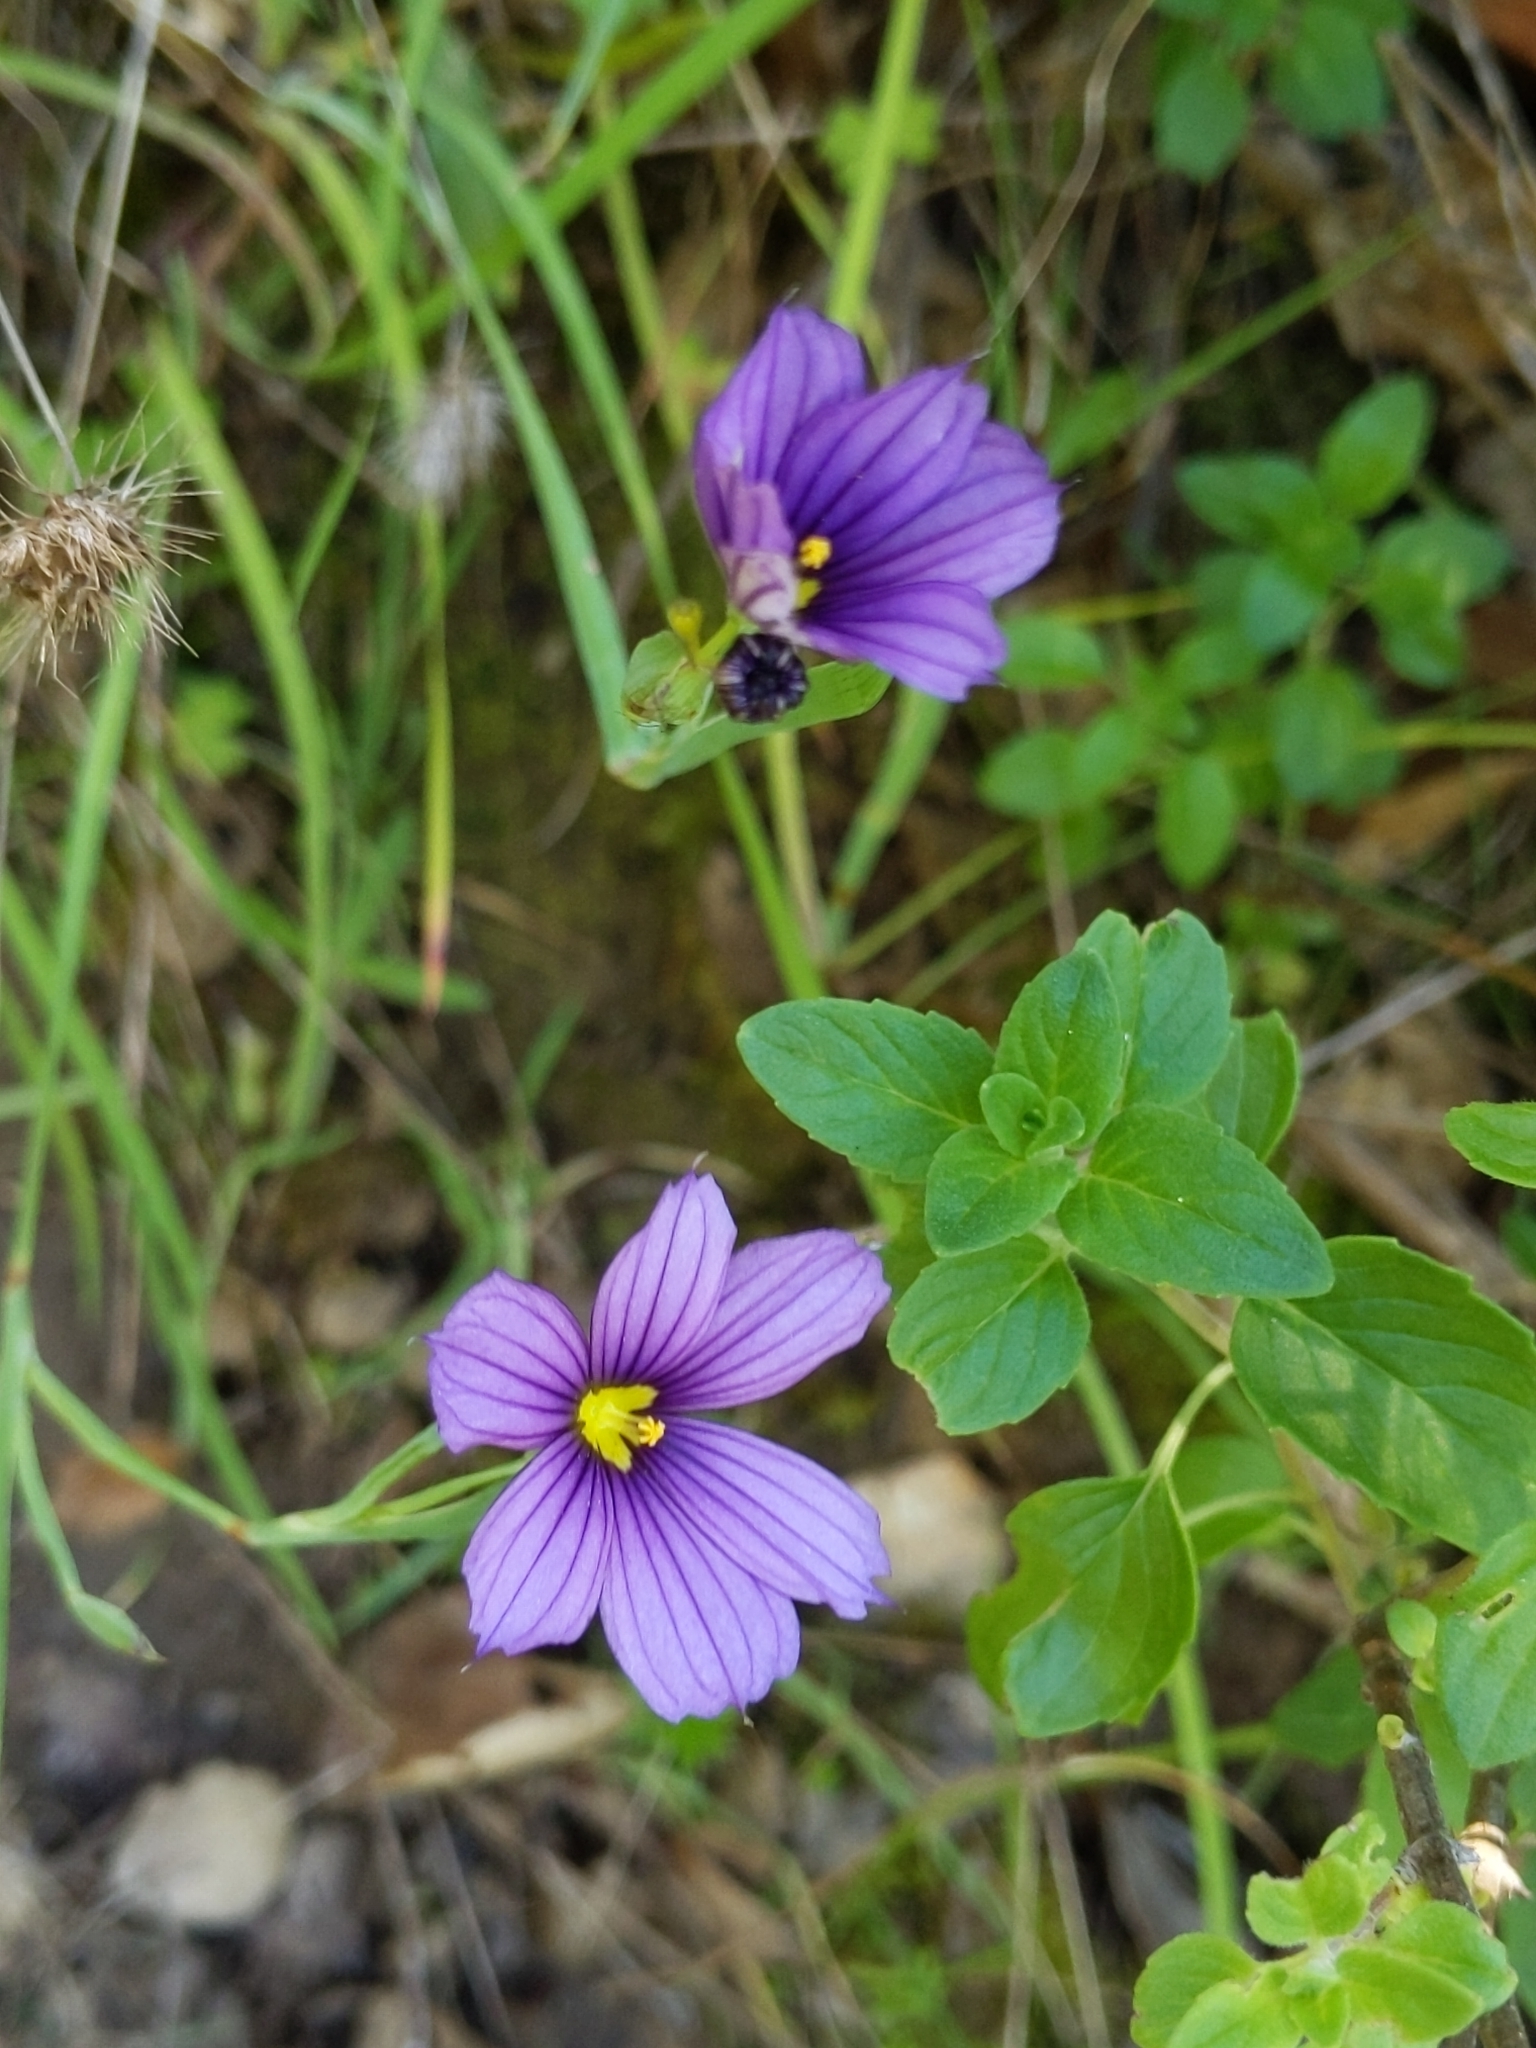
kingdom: Plantae
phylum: Tracheophyta
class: Liliopsida
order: Asparagales
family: Iridaceae
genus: Sisyrinchium
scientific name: Sisyrinchium bellum
